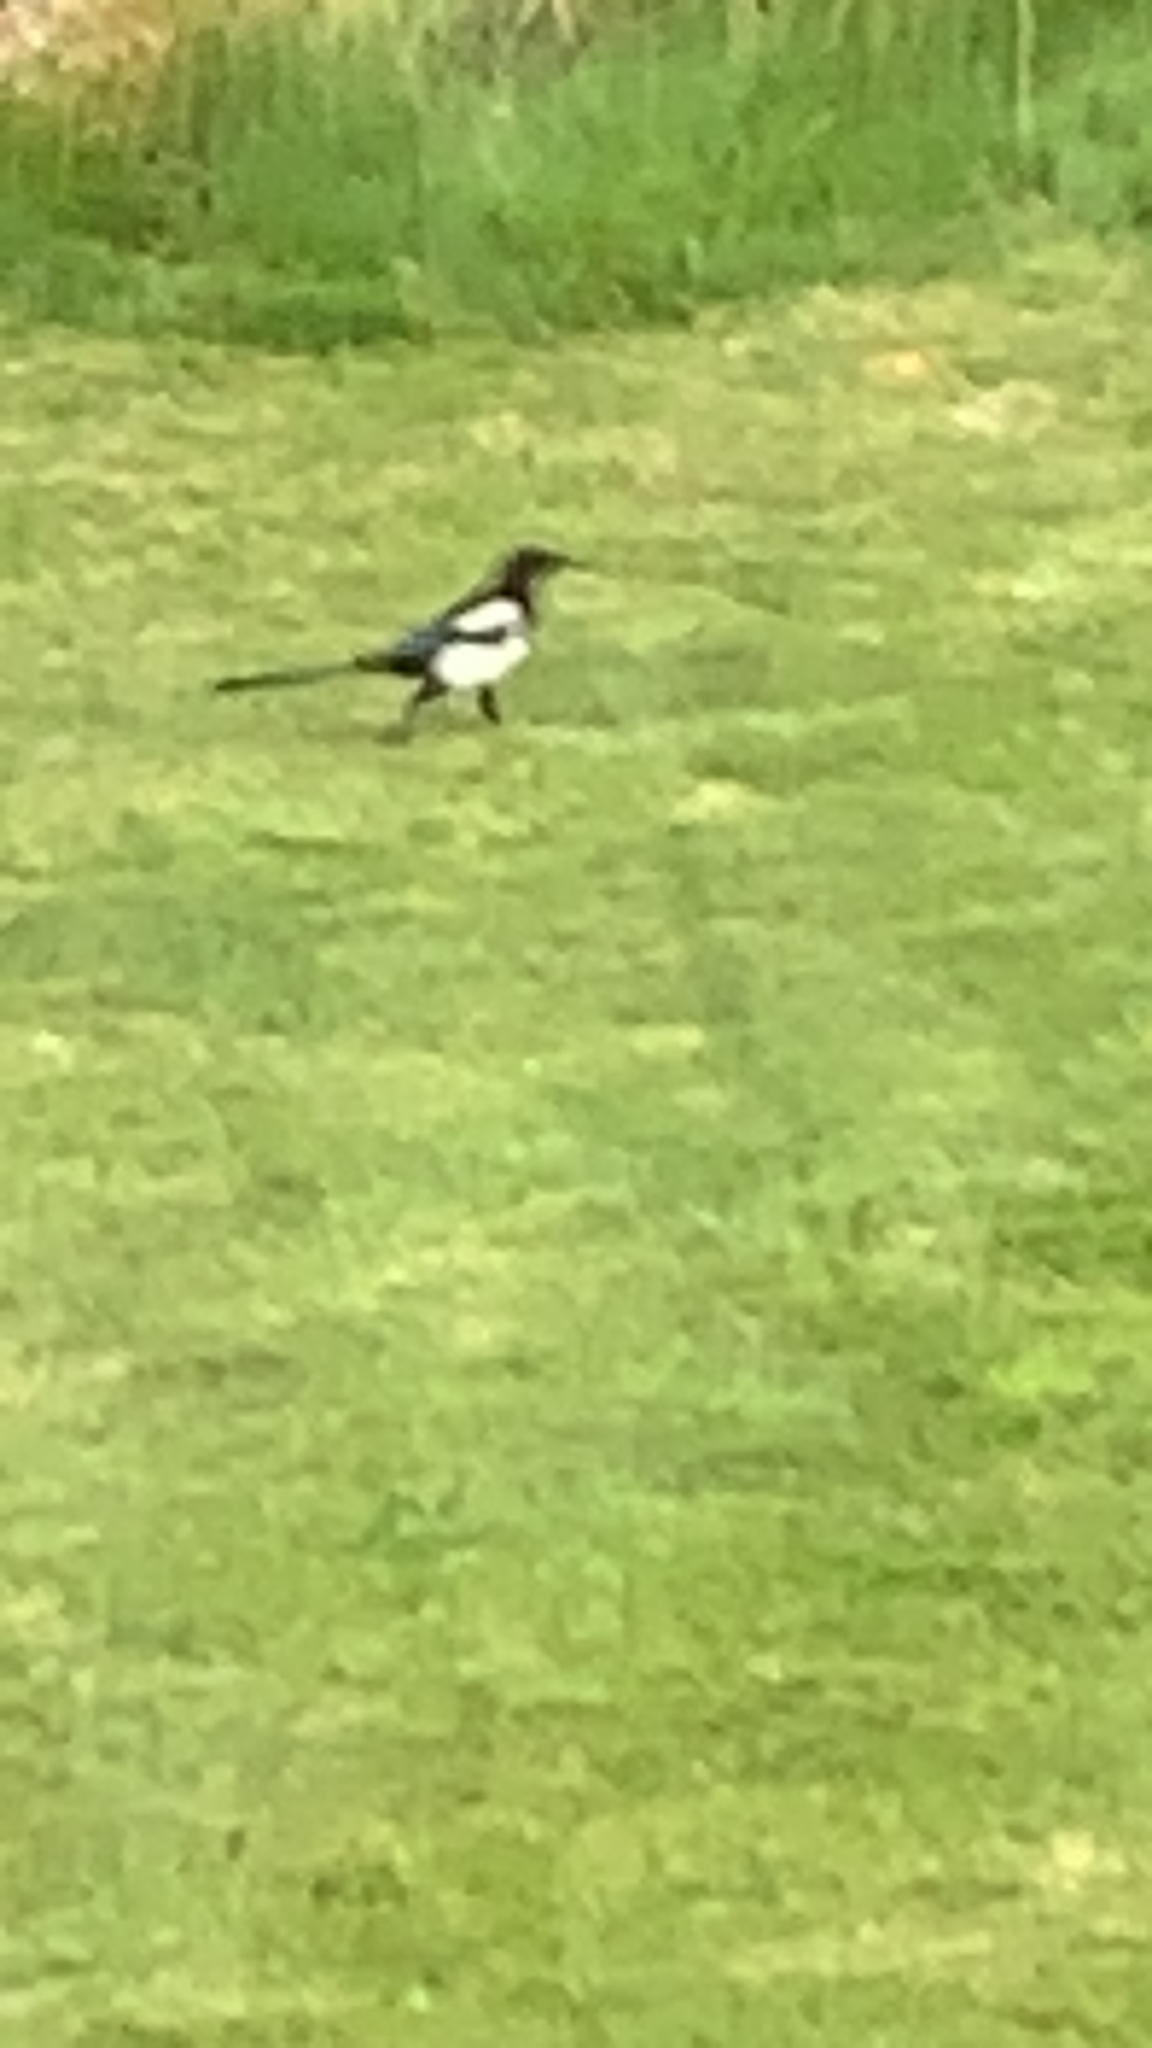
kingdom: Animalia
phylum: Chordata
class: Aves
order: Passeriformes
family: Corvidae
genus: Pica
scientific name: Pica pica
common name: Eurasian magpie
